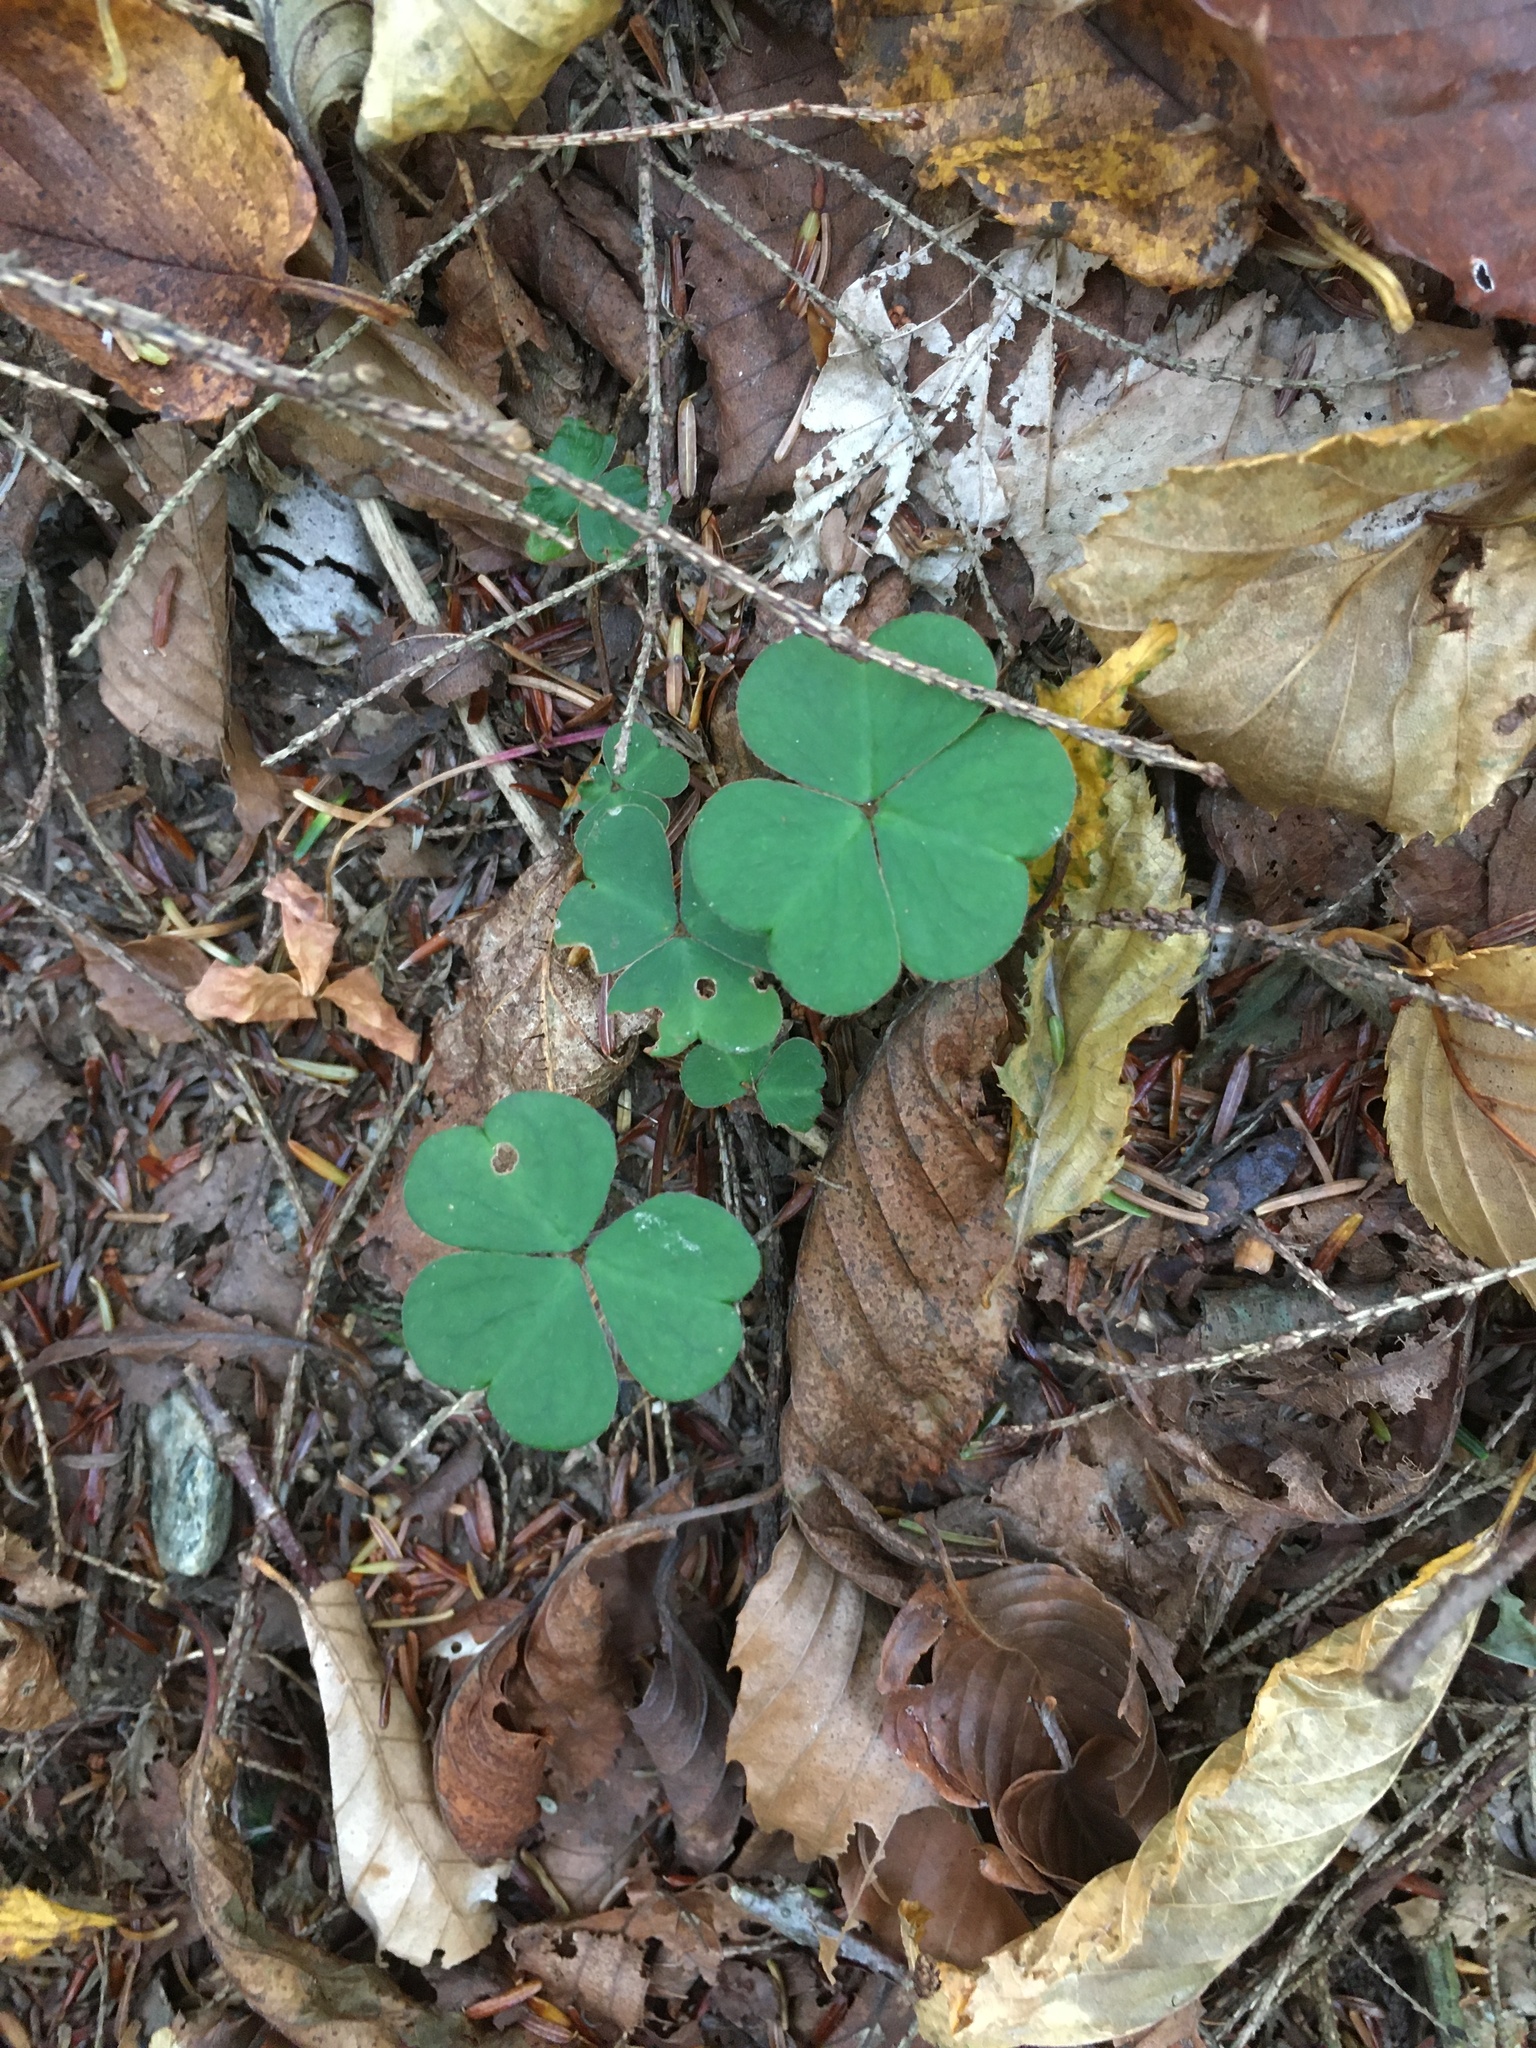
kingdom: Plantae
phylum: Tracheophyta
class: Magnoliopsida
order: Oxalidales
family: Oxalidaceae
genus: Oxalis
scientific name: Oxalis montana
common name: American wood-sorrel
